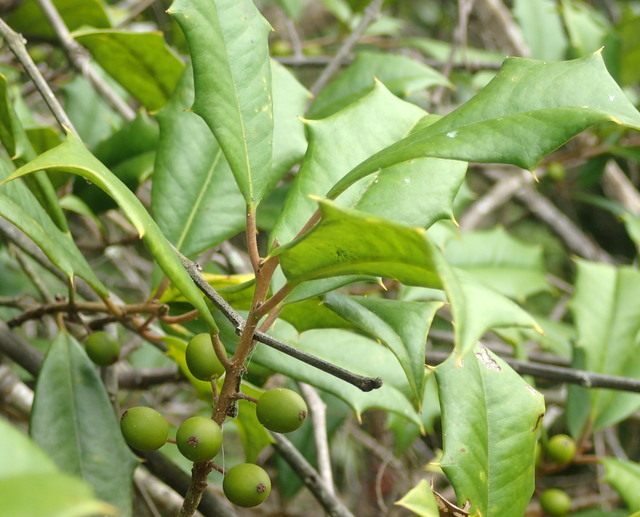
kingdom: Plantae
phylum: Tracheophyta
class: Magnoliopsida
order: Aquifoliales
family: Aquifoliaceae
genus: Ilex
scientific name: Ilex opaca
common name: American holly
